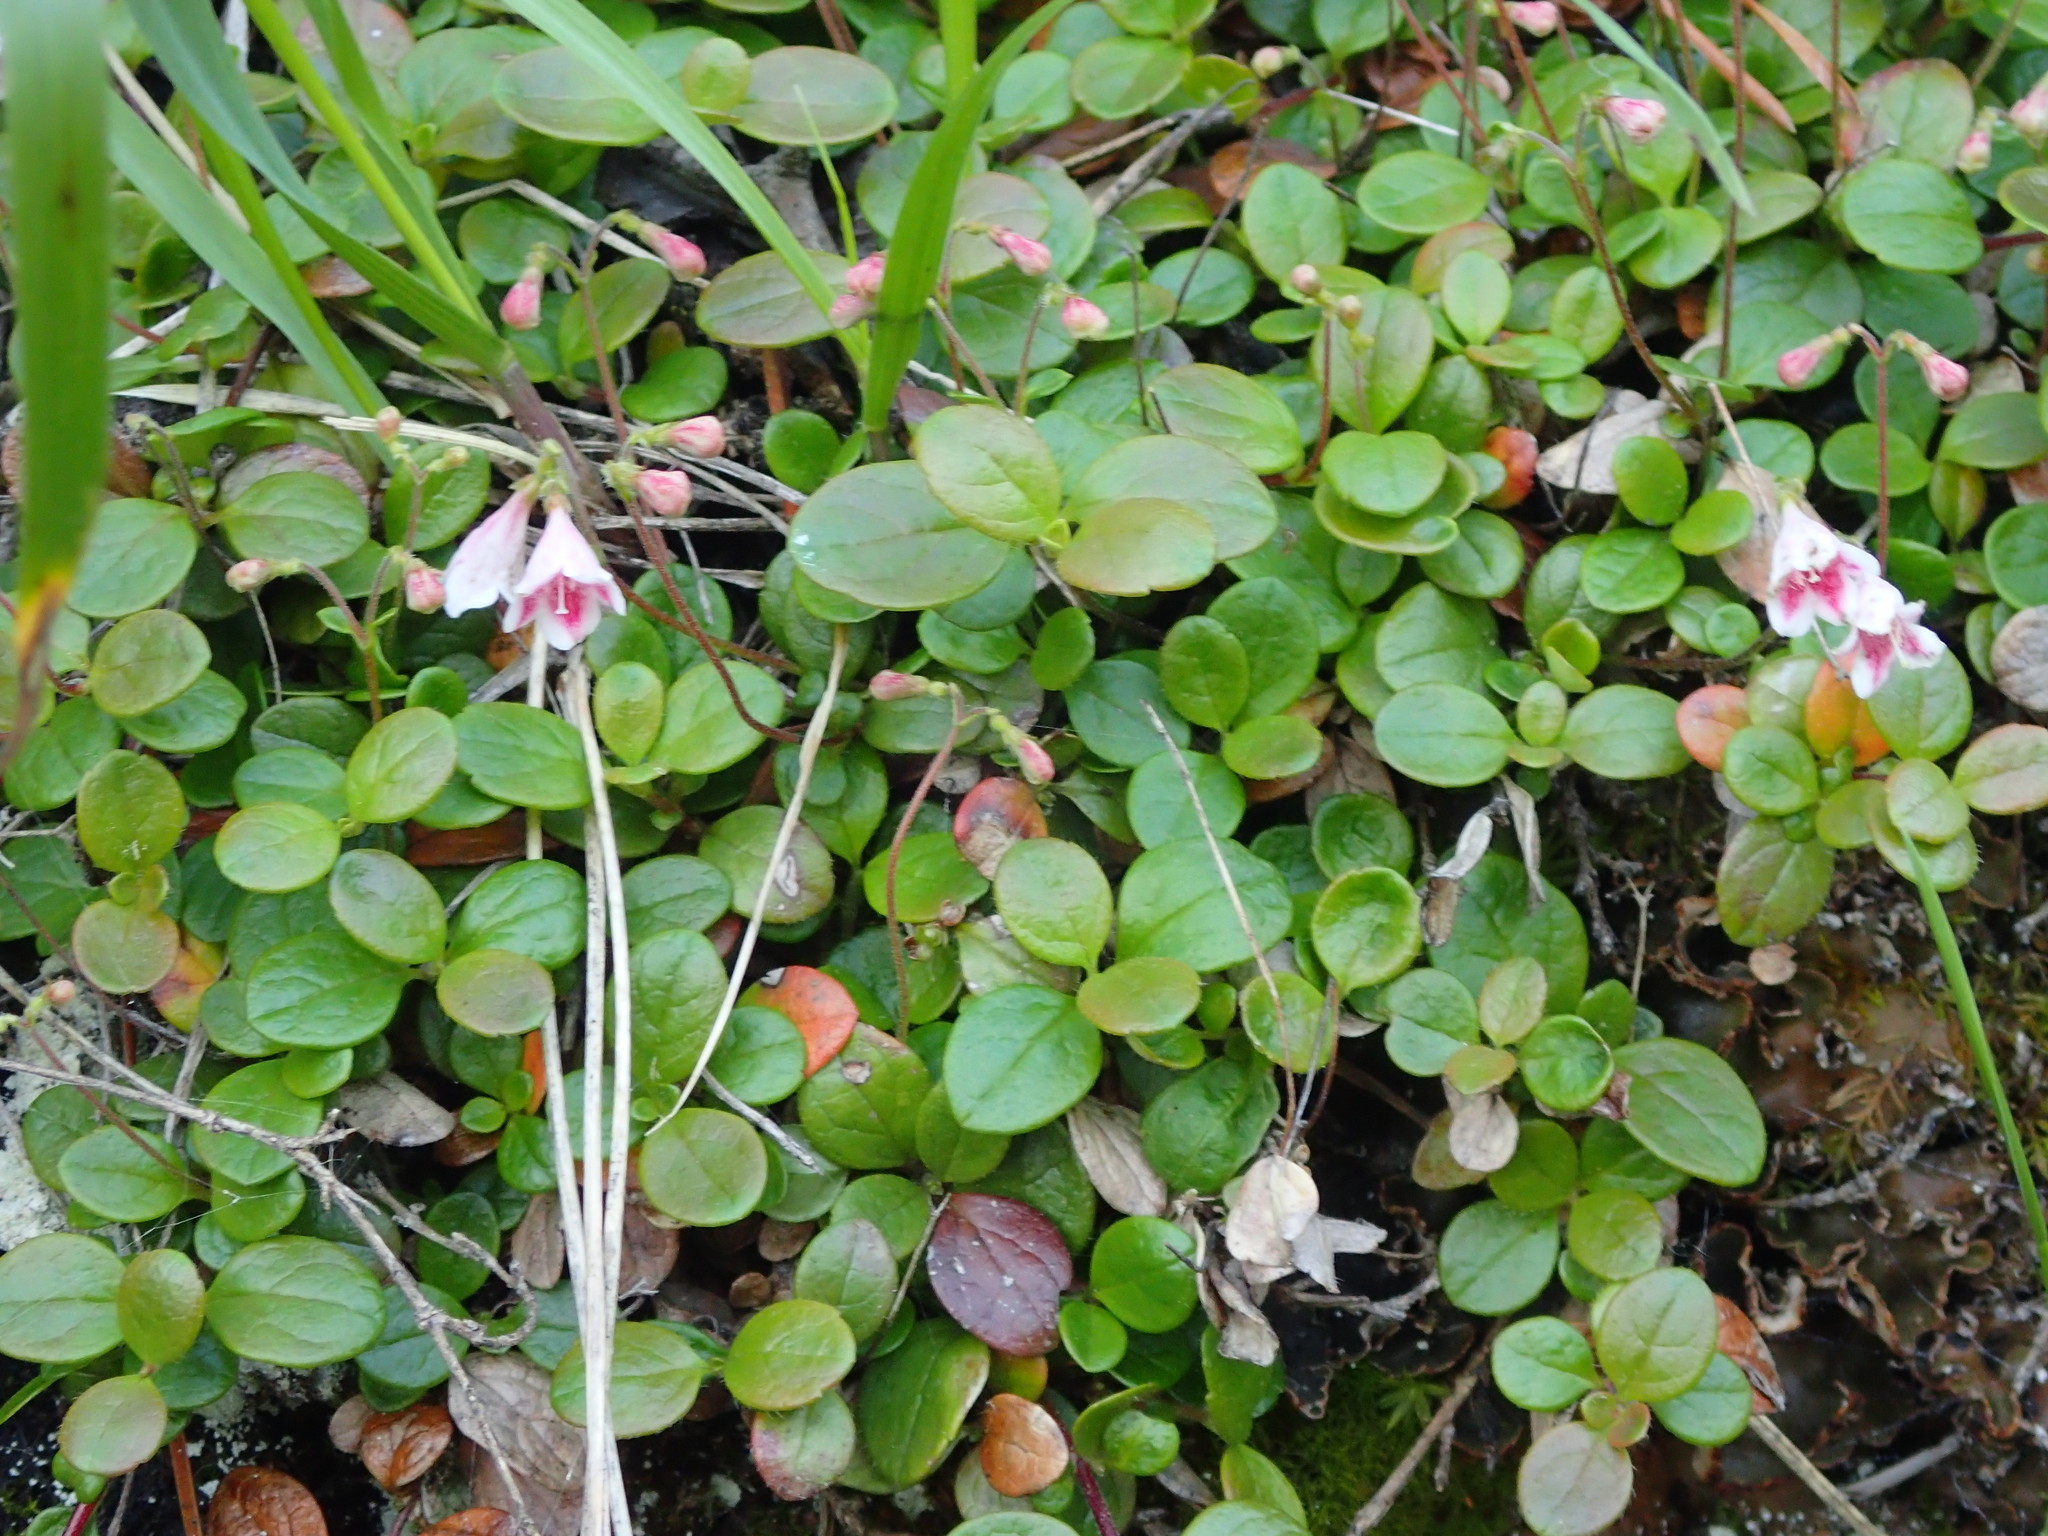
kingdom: Plantae
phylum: Tracheophyta
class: Magnoliopsida
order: Dipsacales
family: Caprifoliaceae
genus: Linnaea
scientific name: Linnaea borealis
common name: Twinflower
